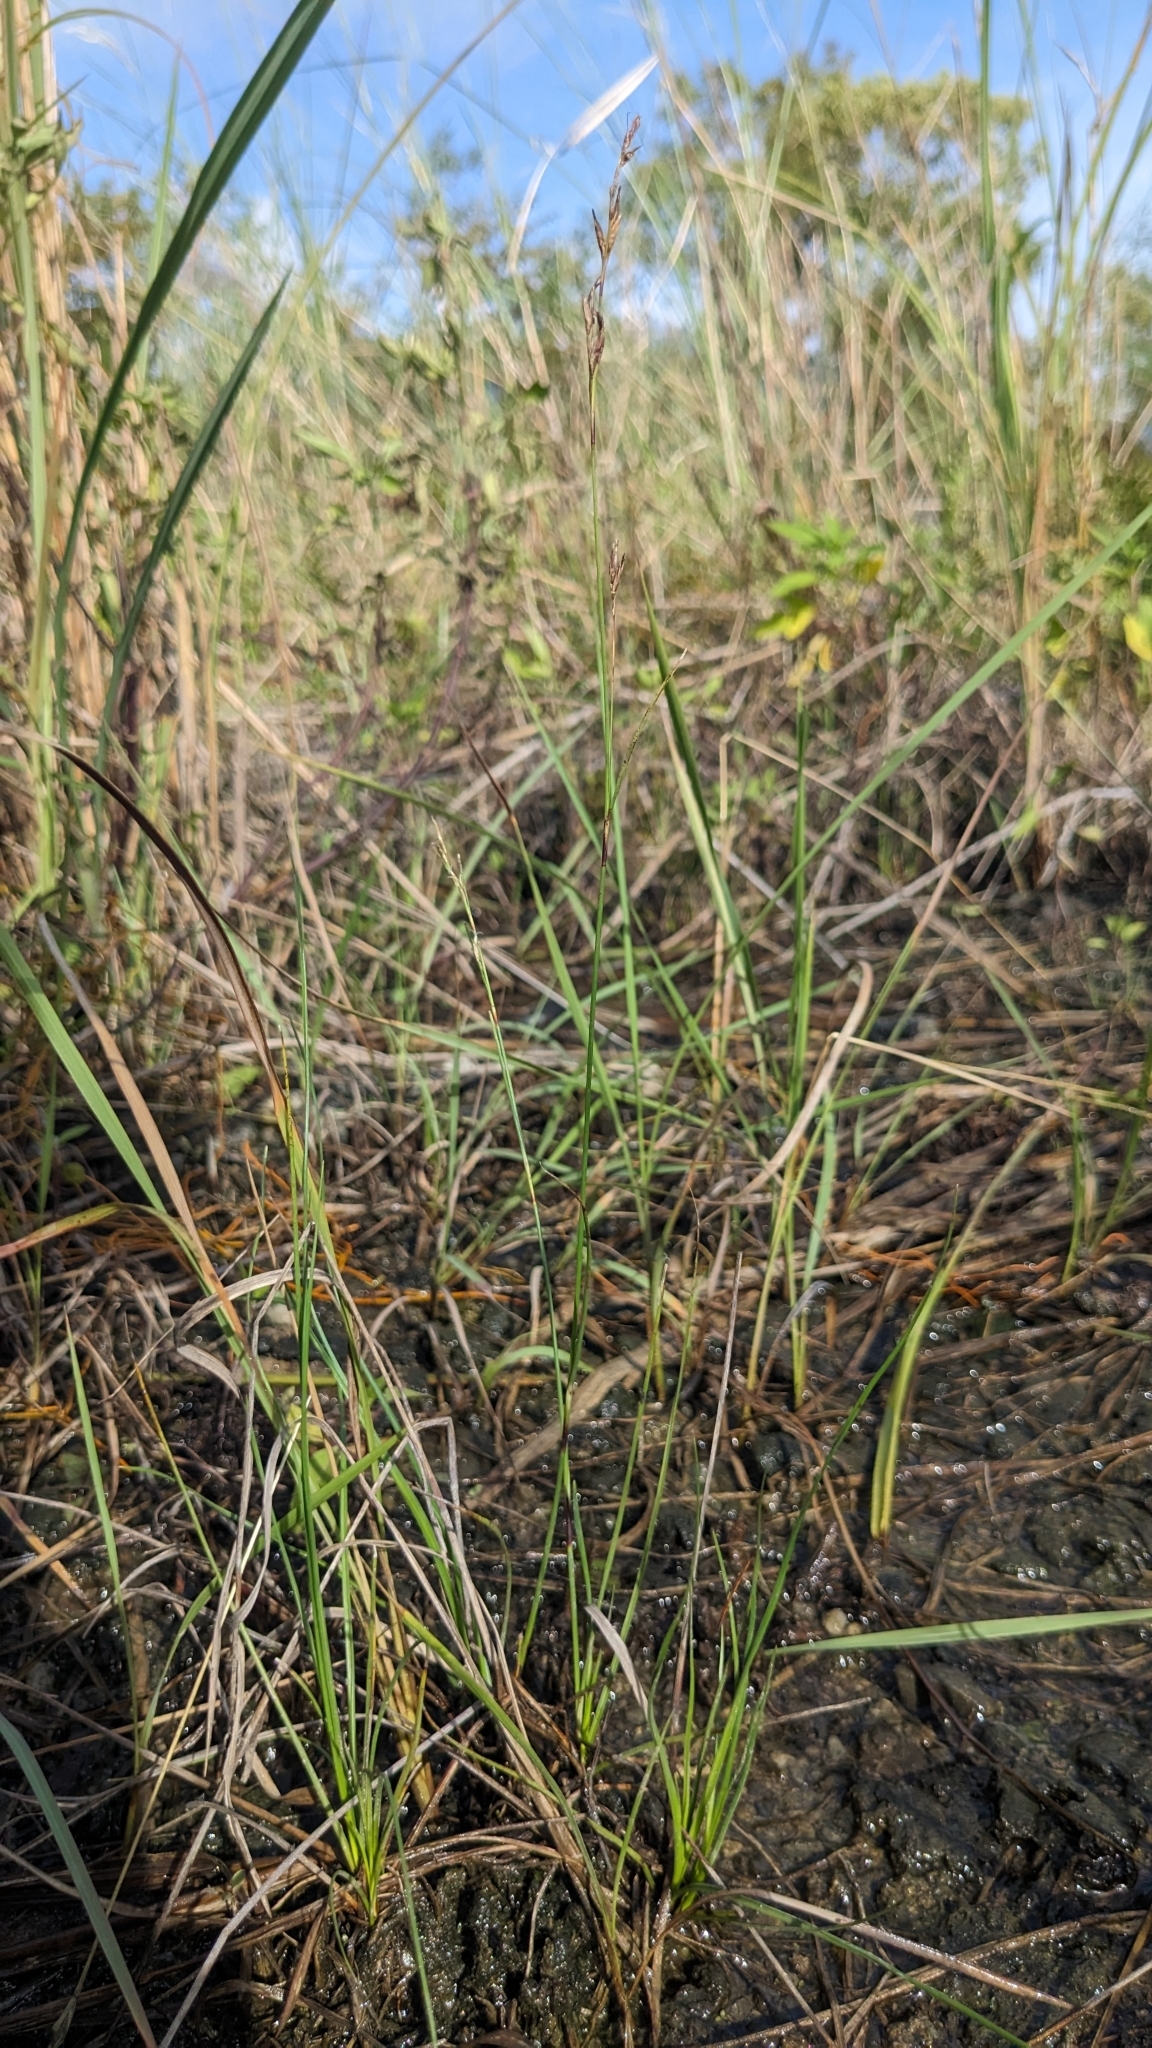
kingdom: Plantae
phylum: Tracheophyta
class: Liliopsida
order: Poales
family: Cyperaceae
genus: Schoenus
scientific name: Schoenus falcatus
